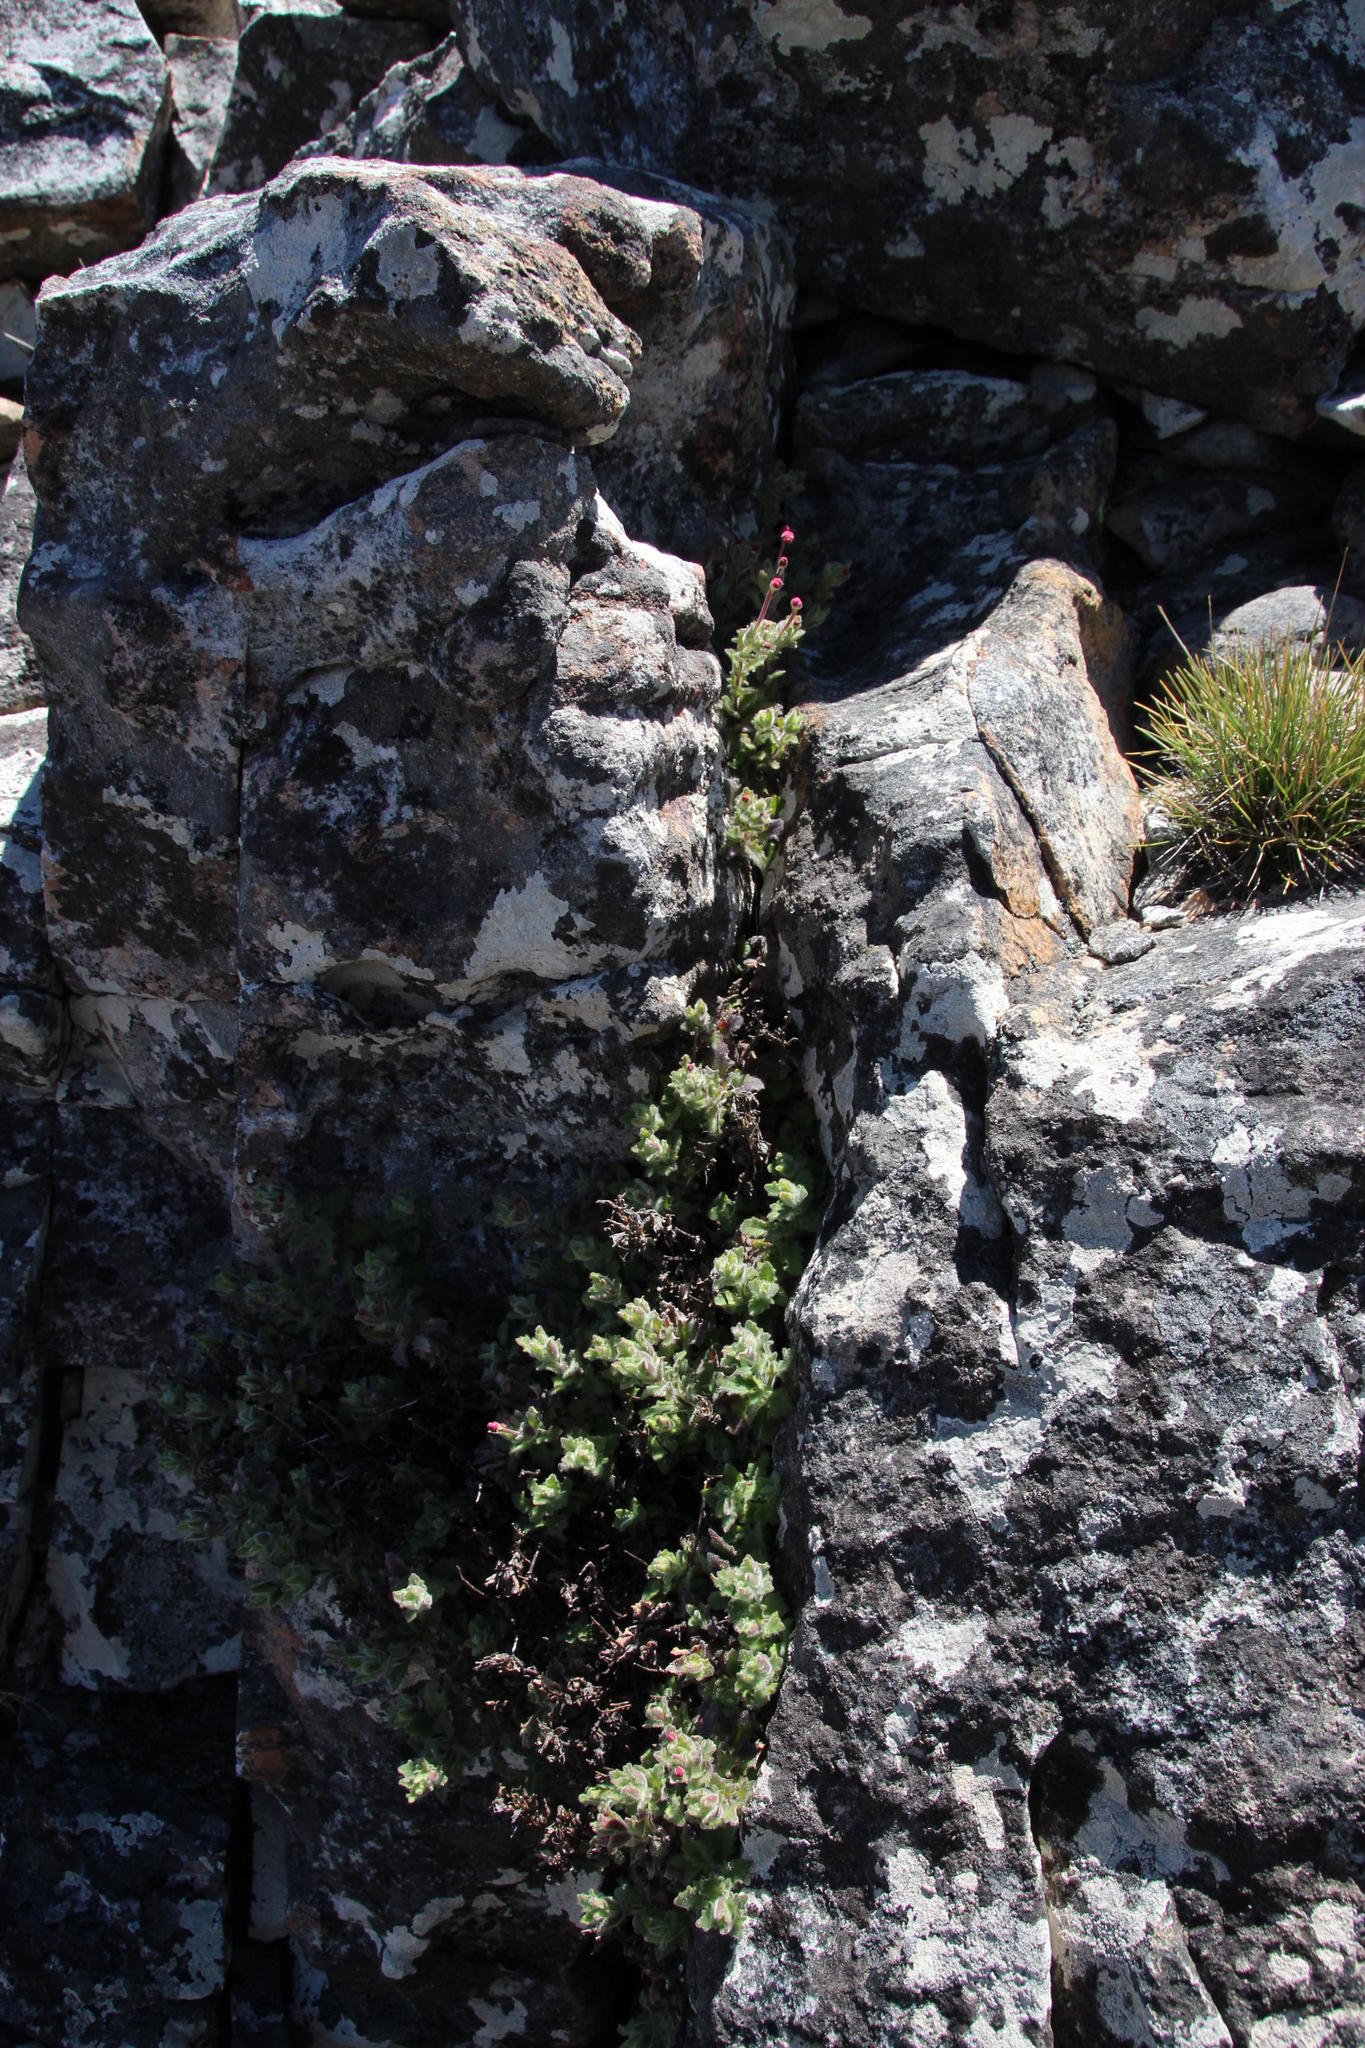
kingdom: Plantae
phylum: Tracheophyta
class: Magnoliopsida
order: Lamiales
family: Scrophulariaceae
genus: Zaluzianskya
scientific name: Zaluzianskya capensis
